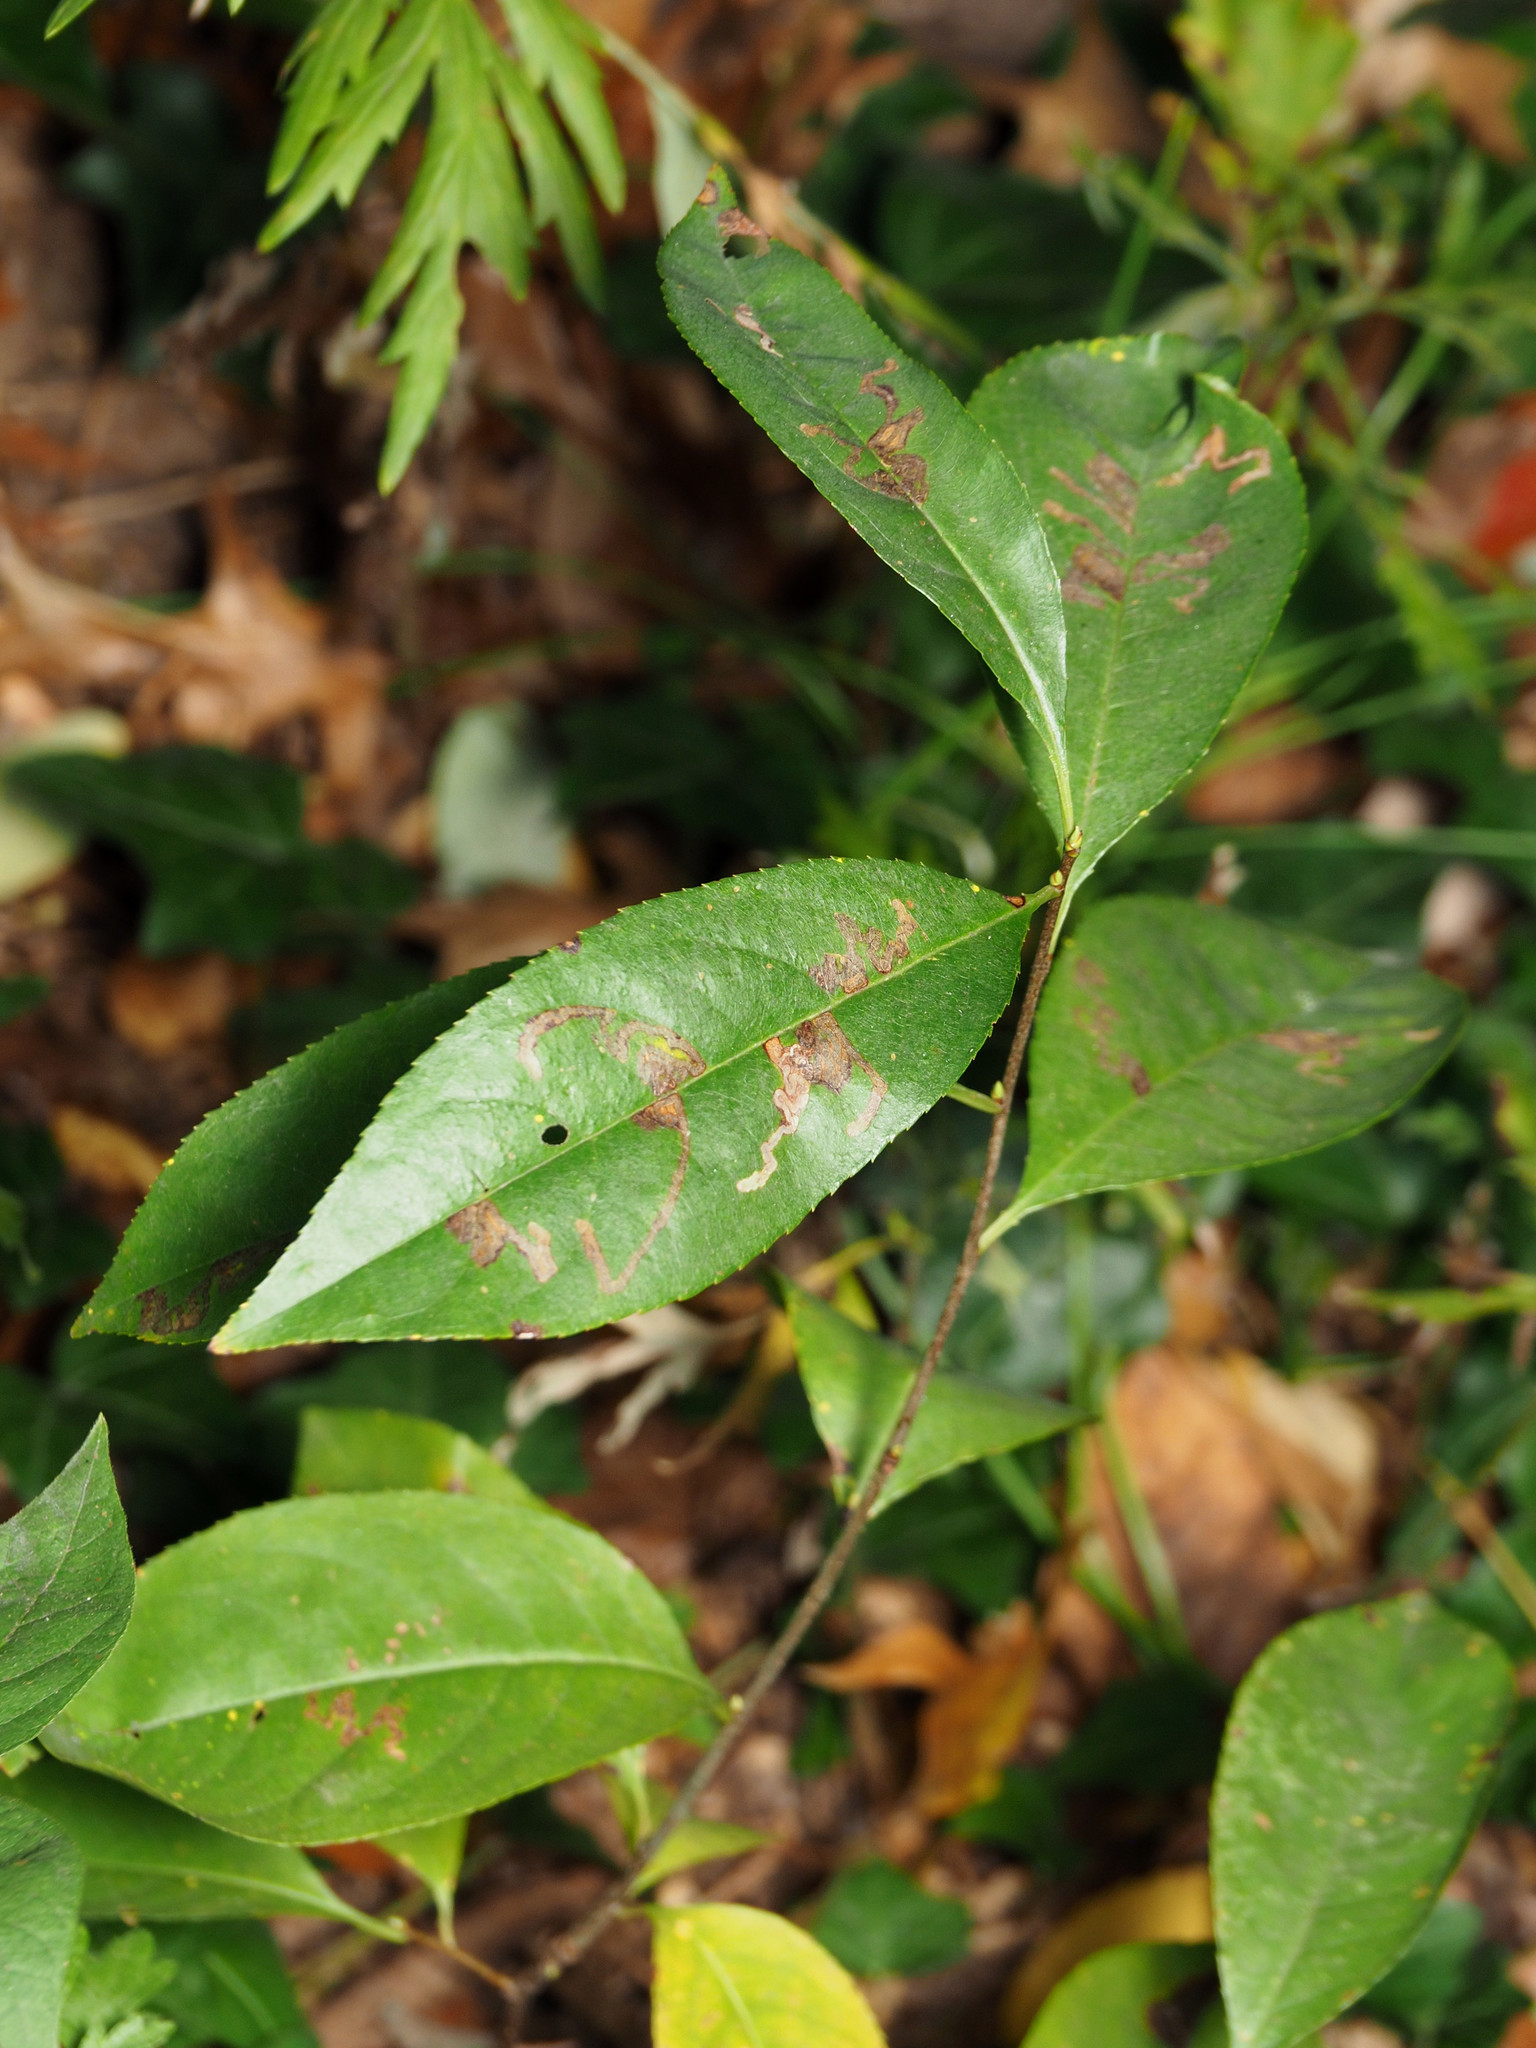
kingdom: Plantae
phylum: Tracheophyta
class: Magnoliopsida
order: Rosales
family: Rosaceae
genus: Prunus
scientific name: Prunus serotina
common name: Black cherry
